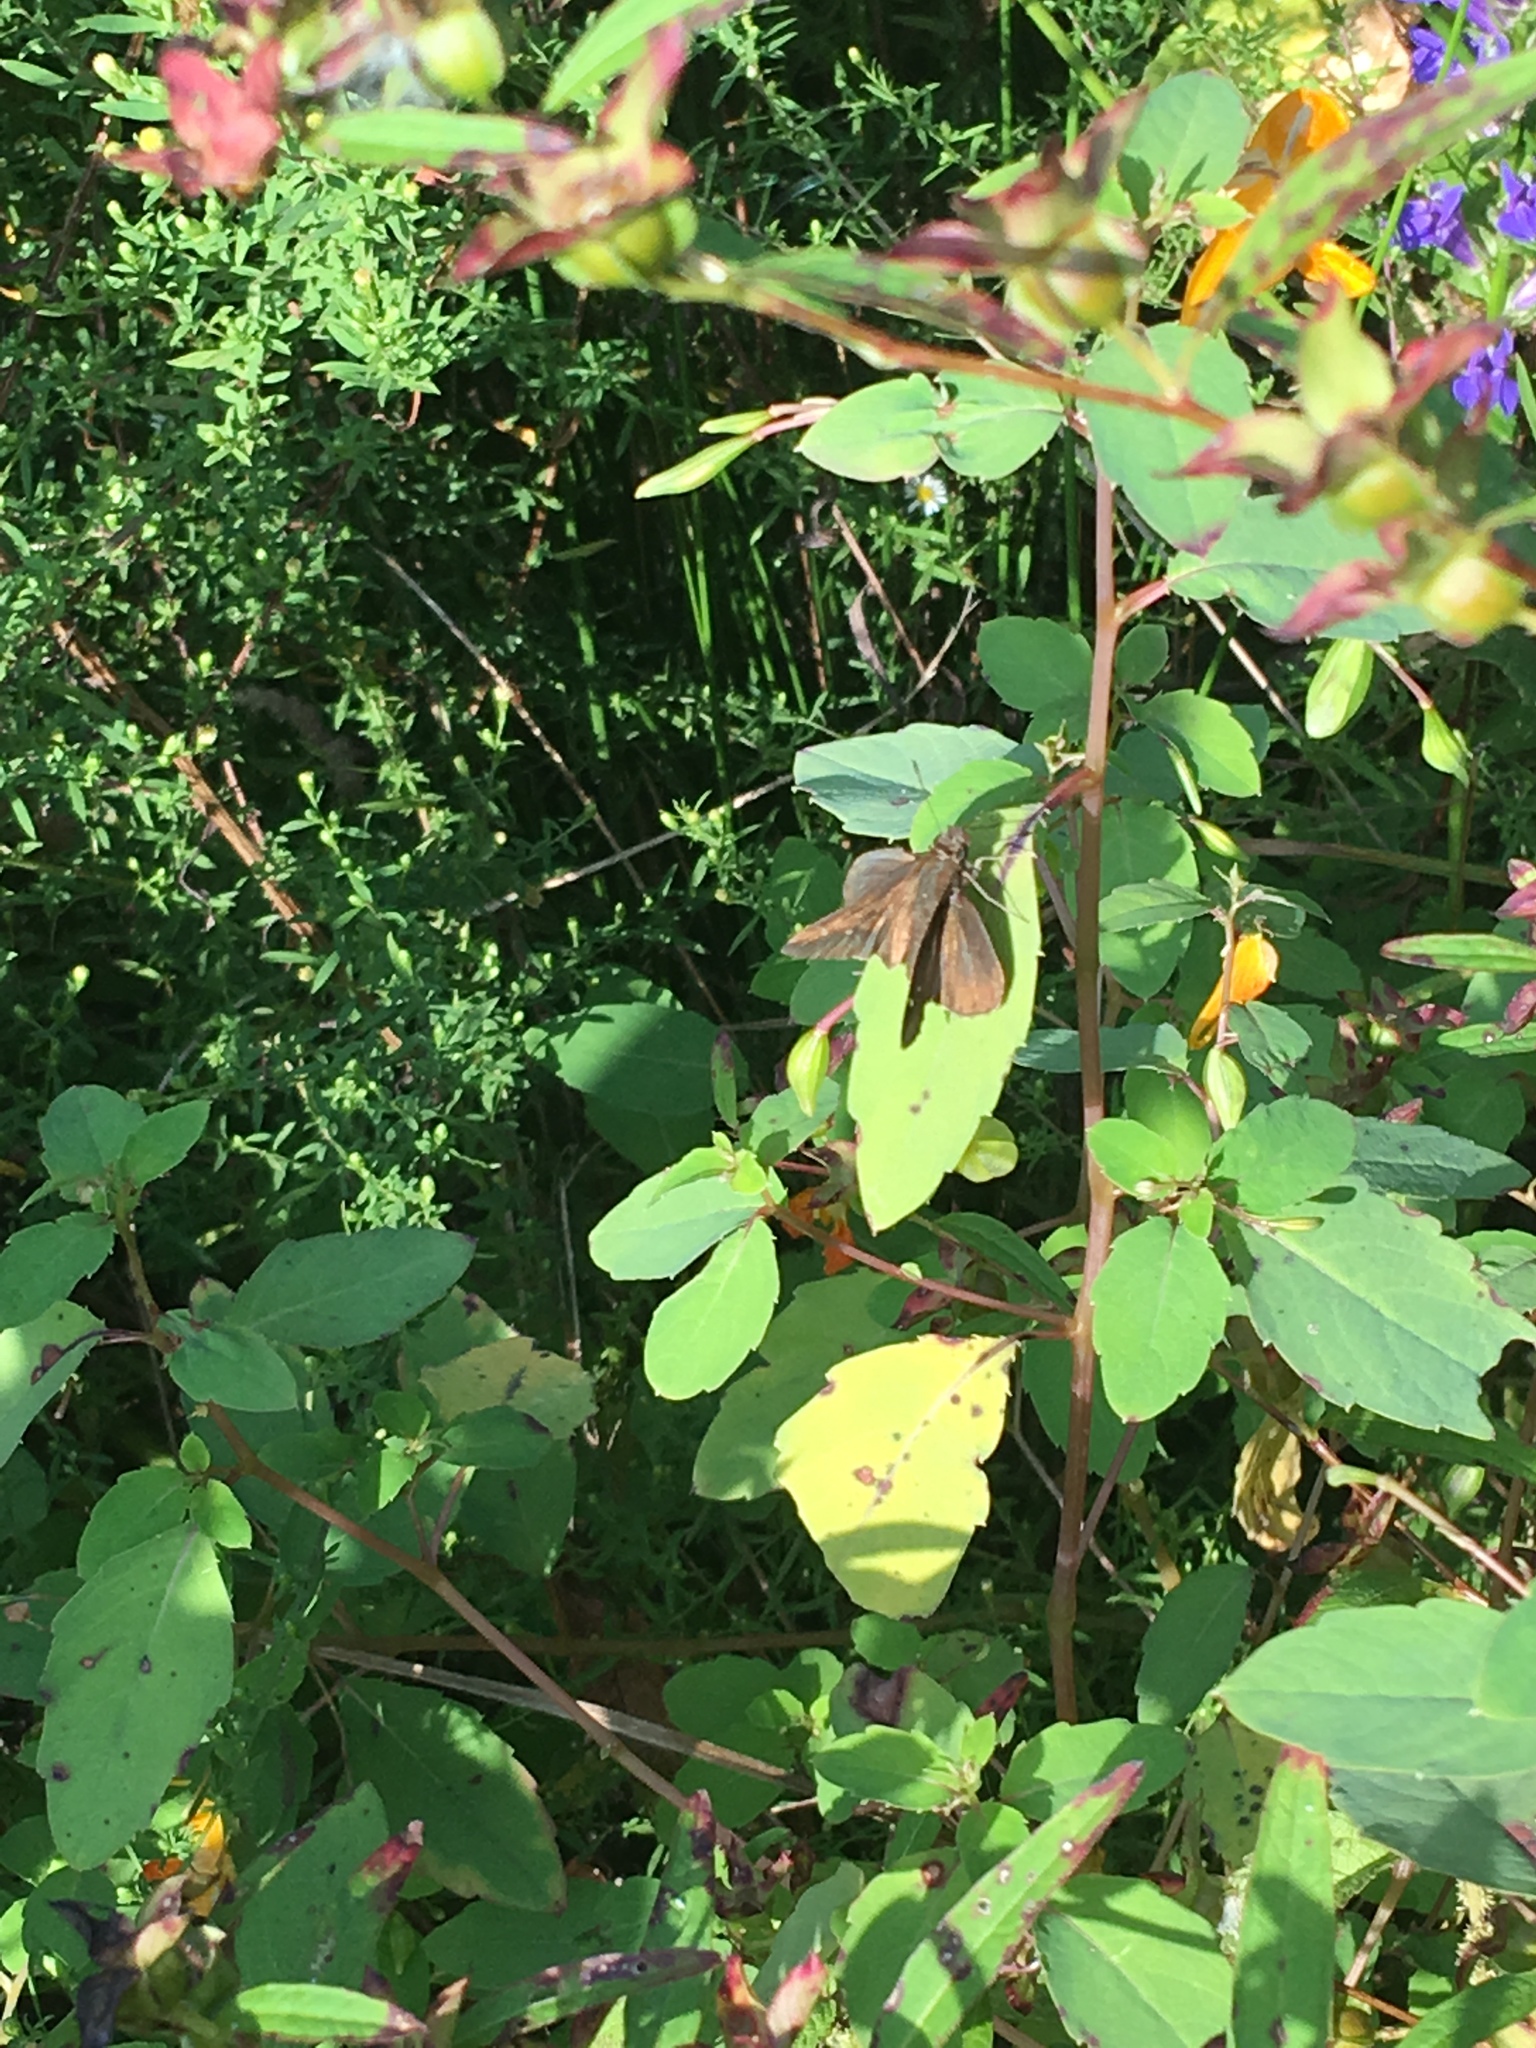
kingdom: Animalia
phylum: Arthropoda
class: Insecta
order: Lepidoptera
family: Hesperiidae
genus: Lerema
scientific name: Lerema accius
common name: Clouded skipper
